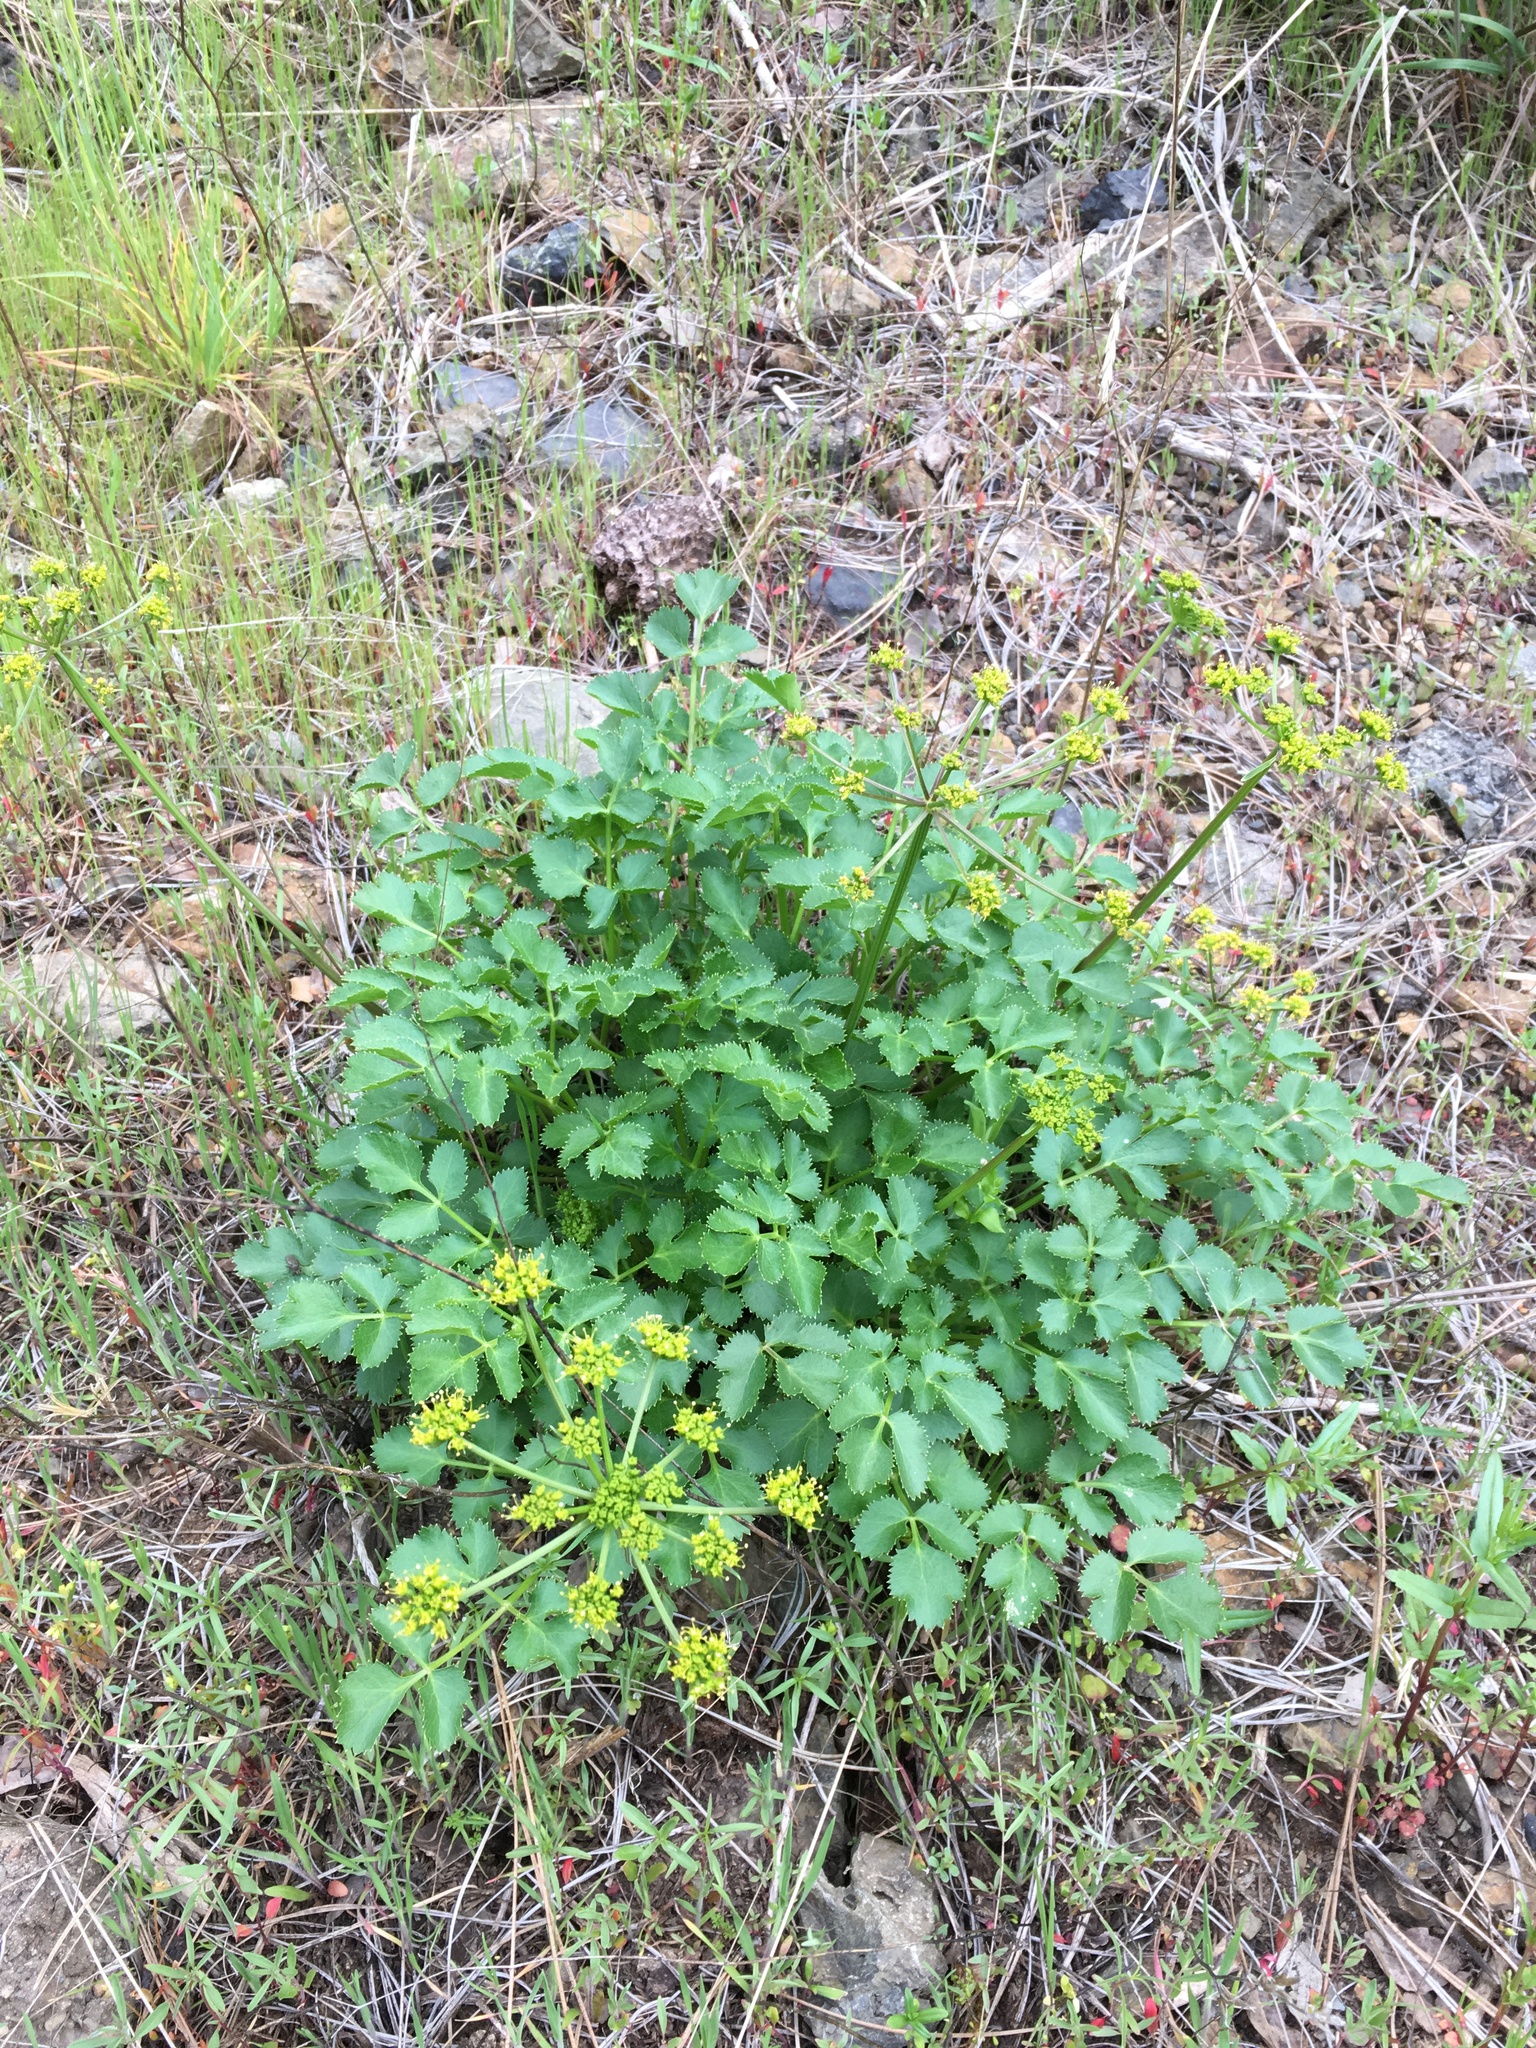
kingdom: Plantae
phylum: Tracheophyta
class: Magnoliopsida
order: Apiales
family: Apiaceae
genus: Tauschia
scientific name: Tauschia hartwegii
